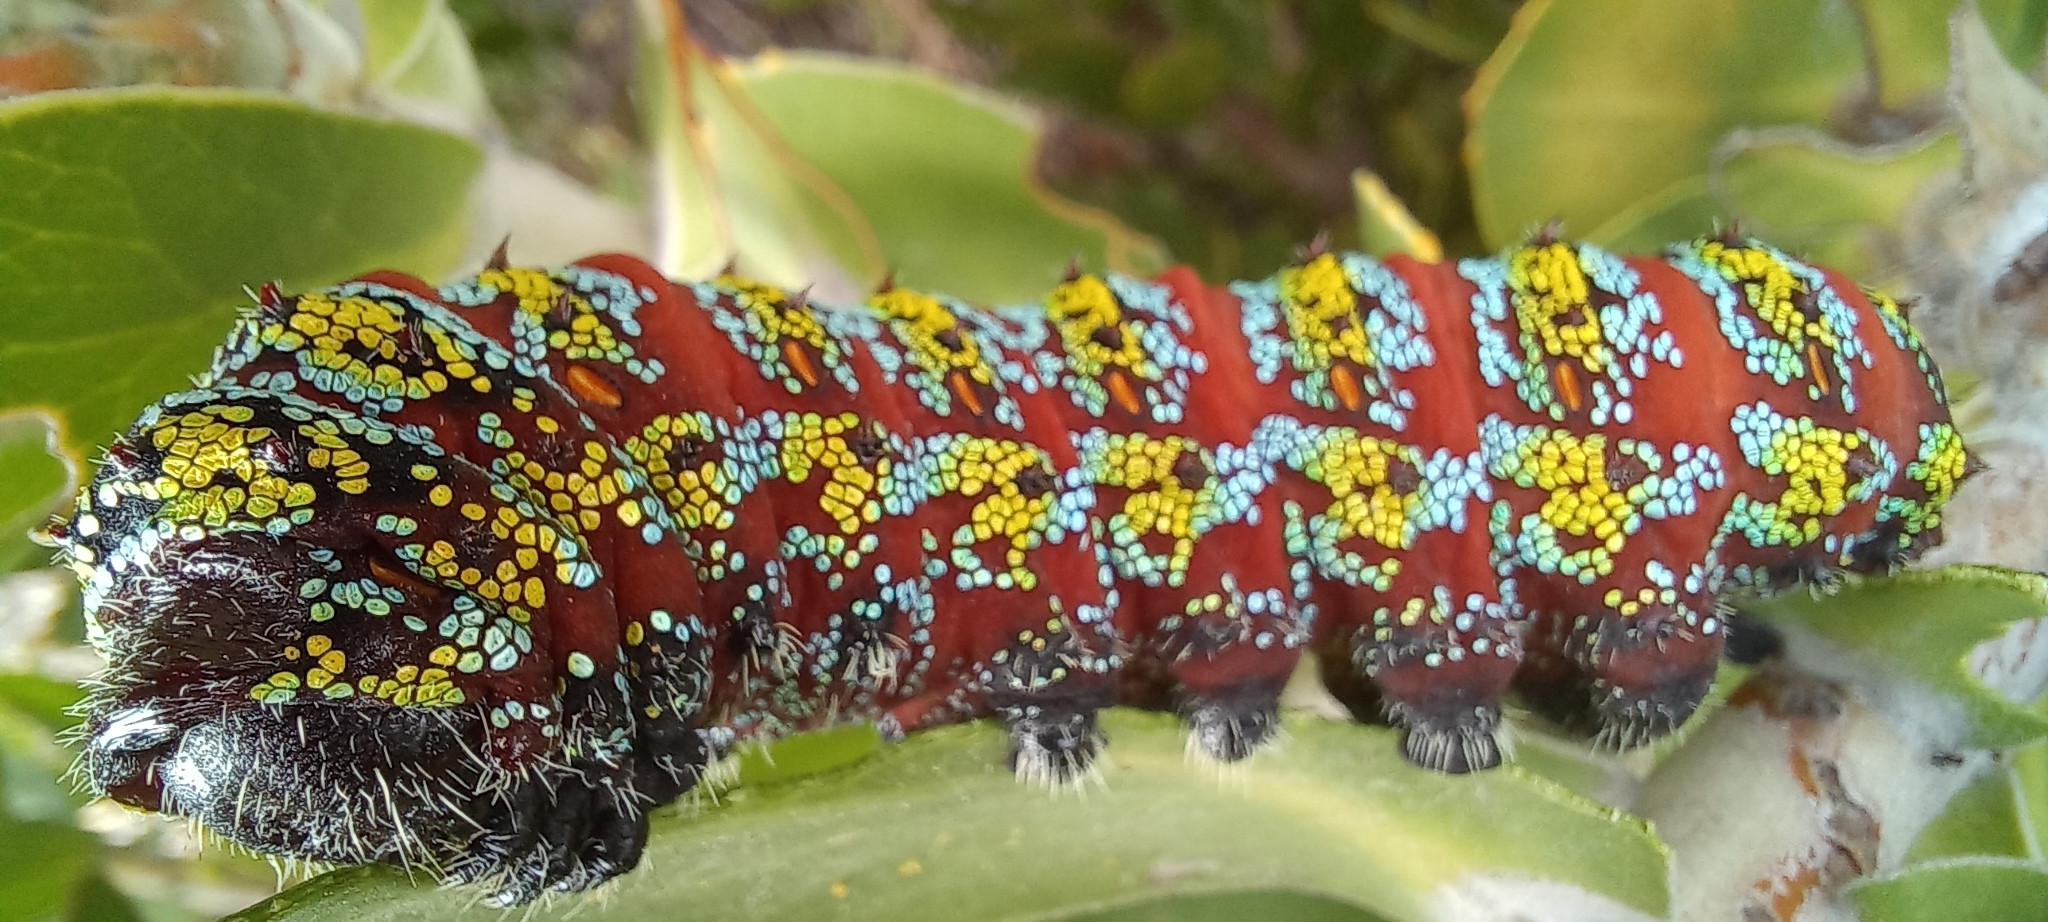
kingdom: Animalia
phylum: Arthropoda
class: Insecta
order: Lepidoptera
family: Saturniidae
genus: Nudaurelia
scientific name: Nudaurelia cytherea
